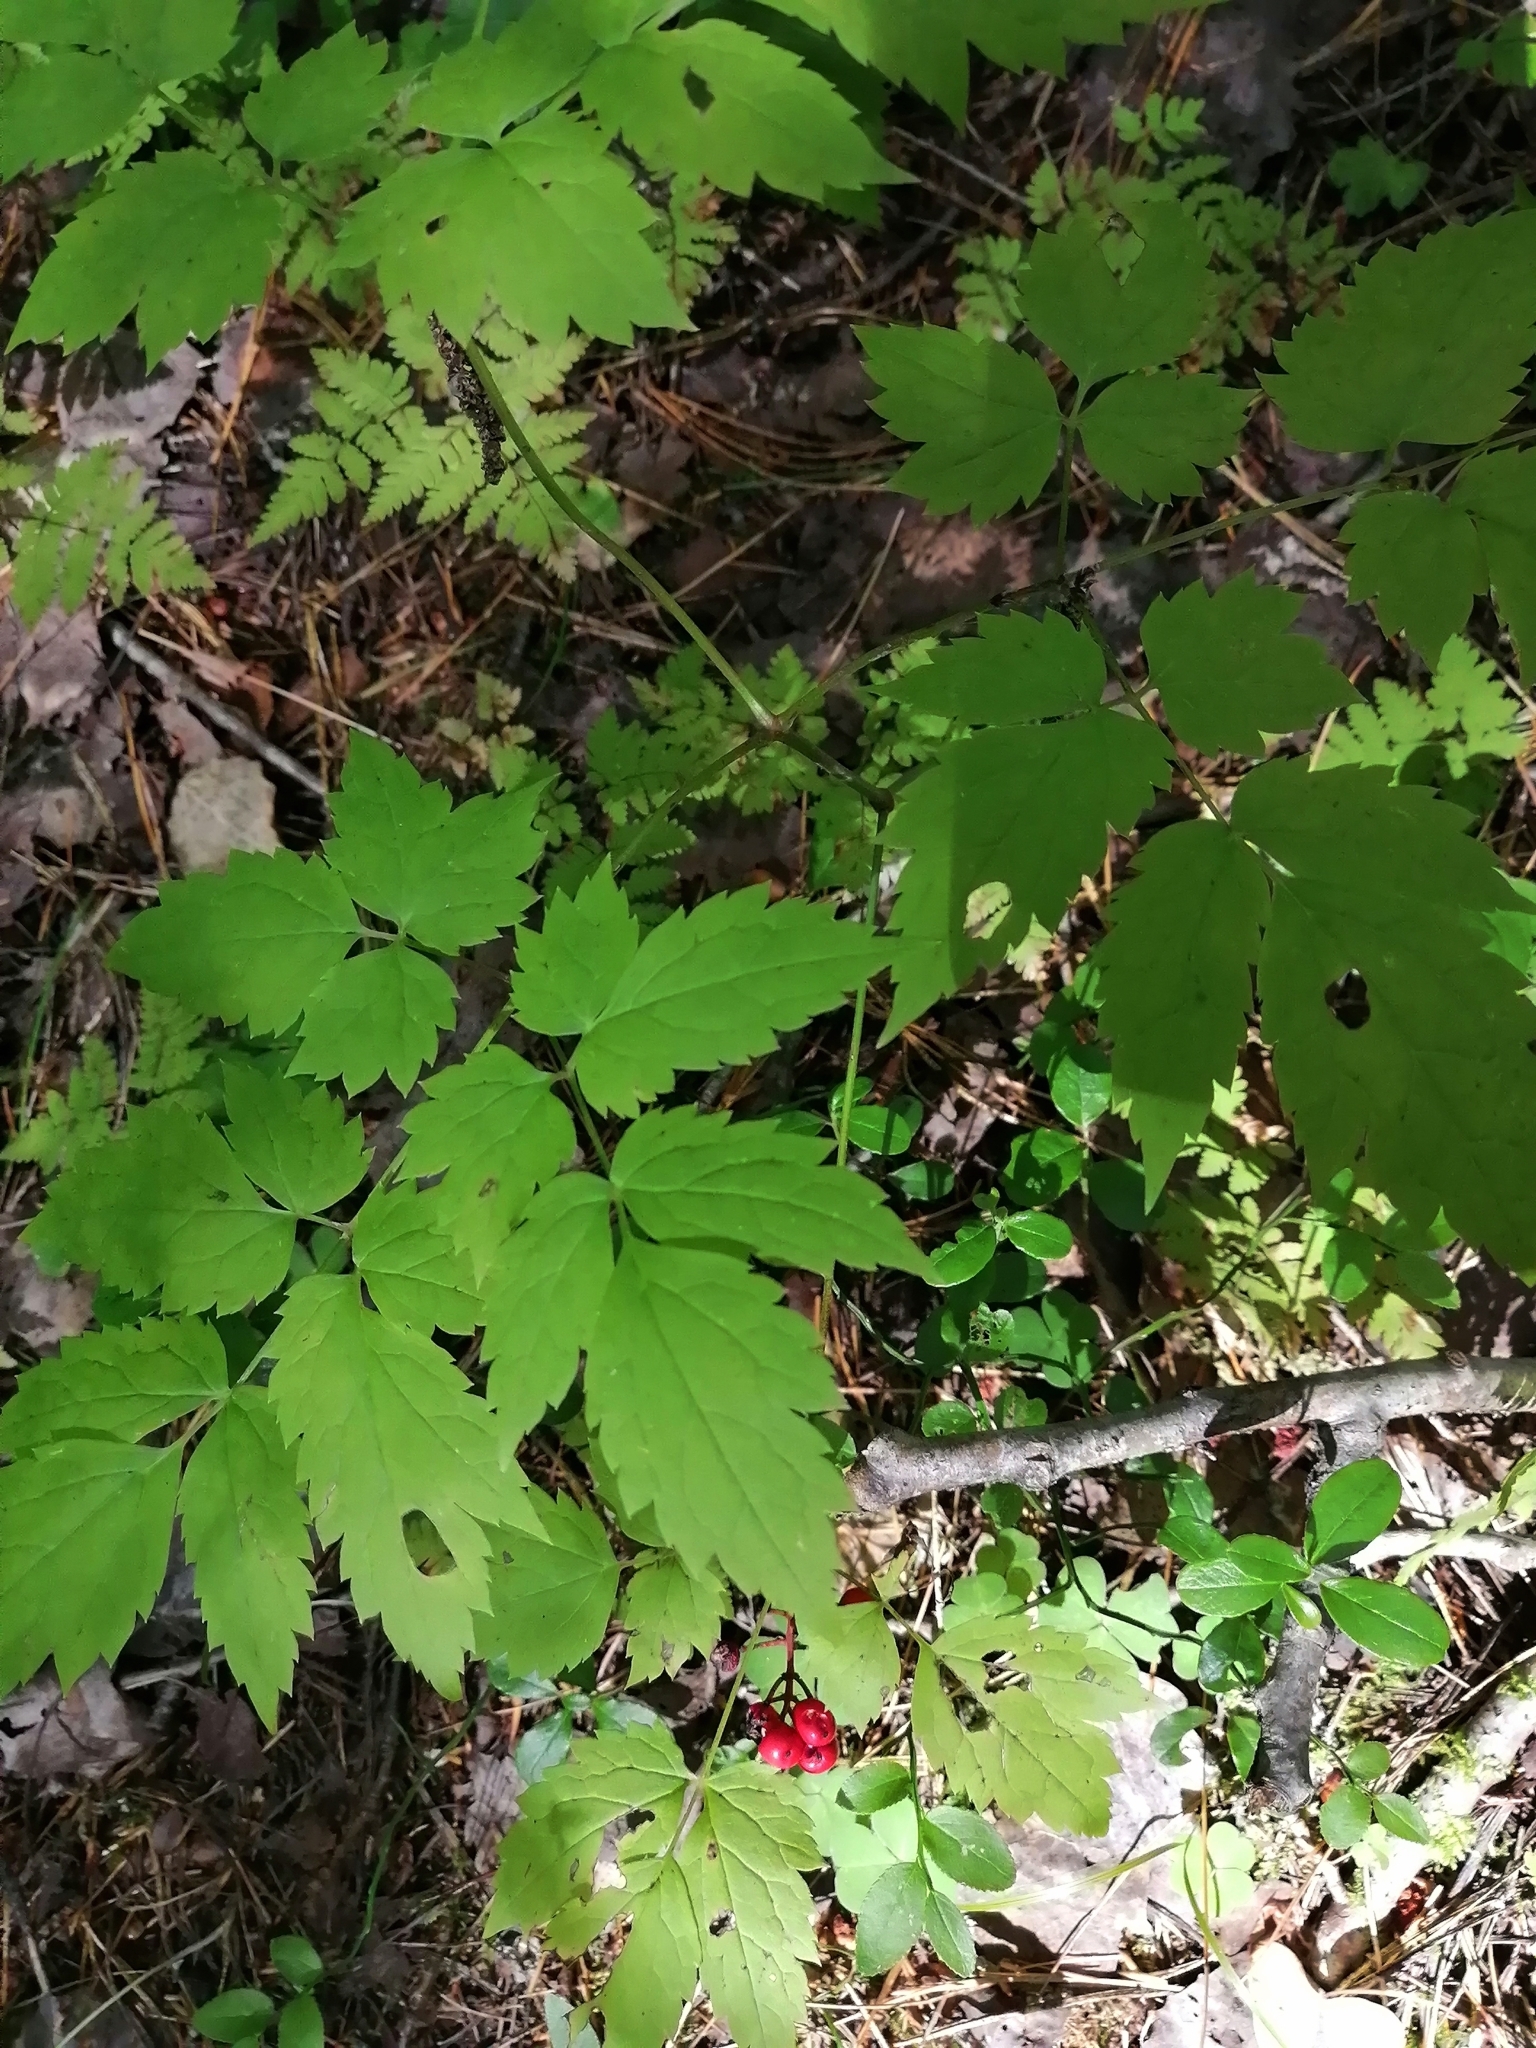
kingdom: Plantae
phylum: Tracheophyta
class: Magnoliopsida
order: Ranunculales
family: Ranunculaceae
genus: Actaea
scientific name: Actaea erythrocarpa
